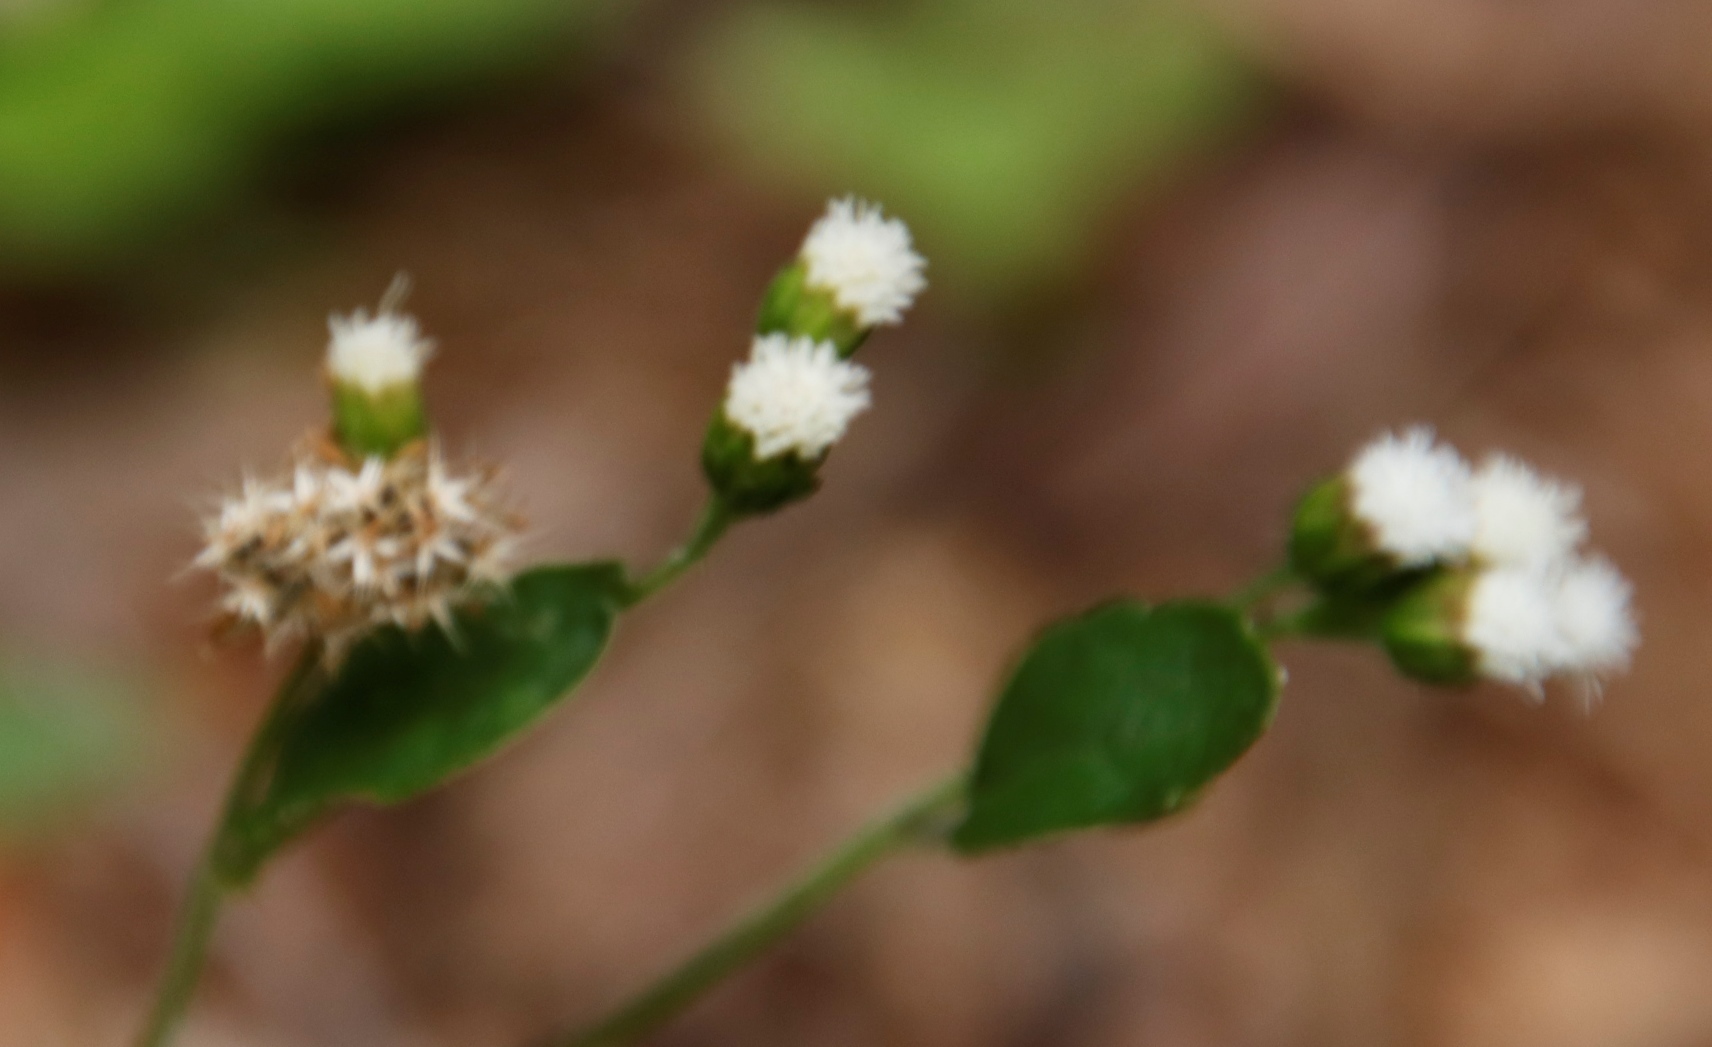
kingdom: Plantae
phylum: Tracheophyta
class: Magnoliopsida
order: Asterales
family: Asteraceae
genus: Ageratum
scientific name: Ageratum conyzoides
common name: Tropical whiteweed
